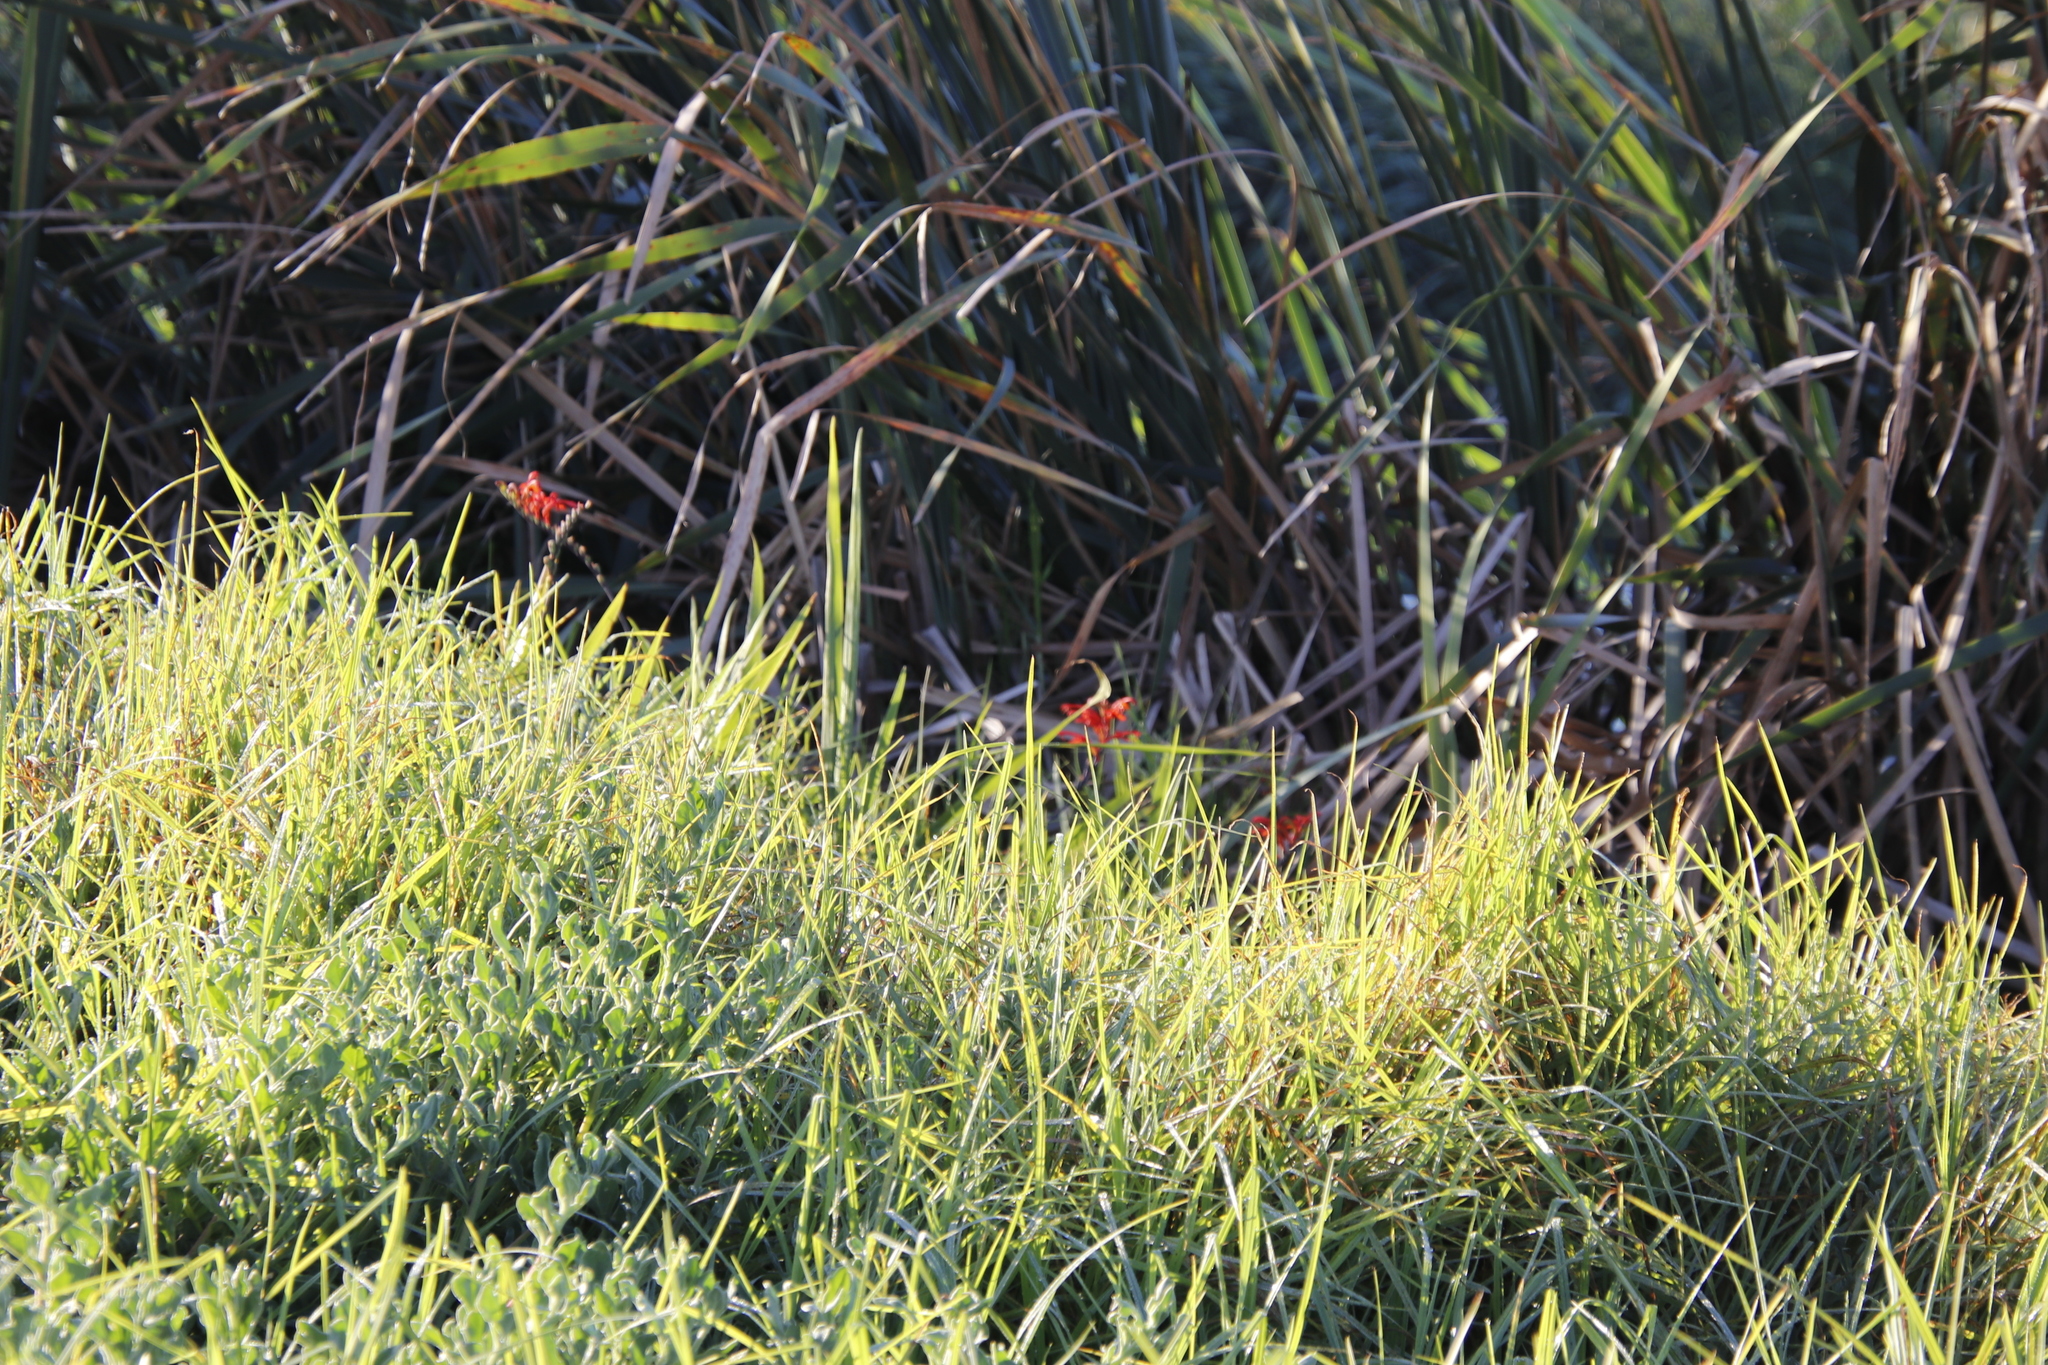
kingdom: Plantae
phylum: Tracheophyta
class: Liliopsida
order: Asparagales
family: Iridaceae
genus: Chasmanthe
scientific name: Chasmanthe aethiopica
